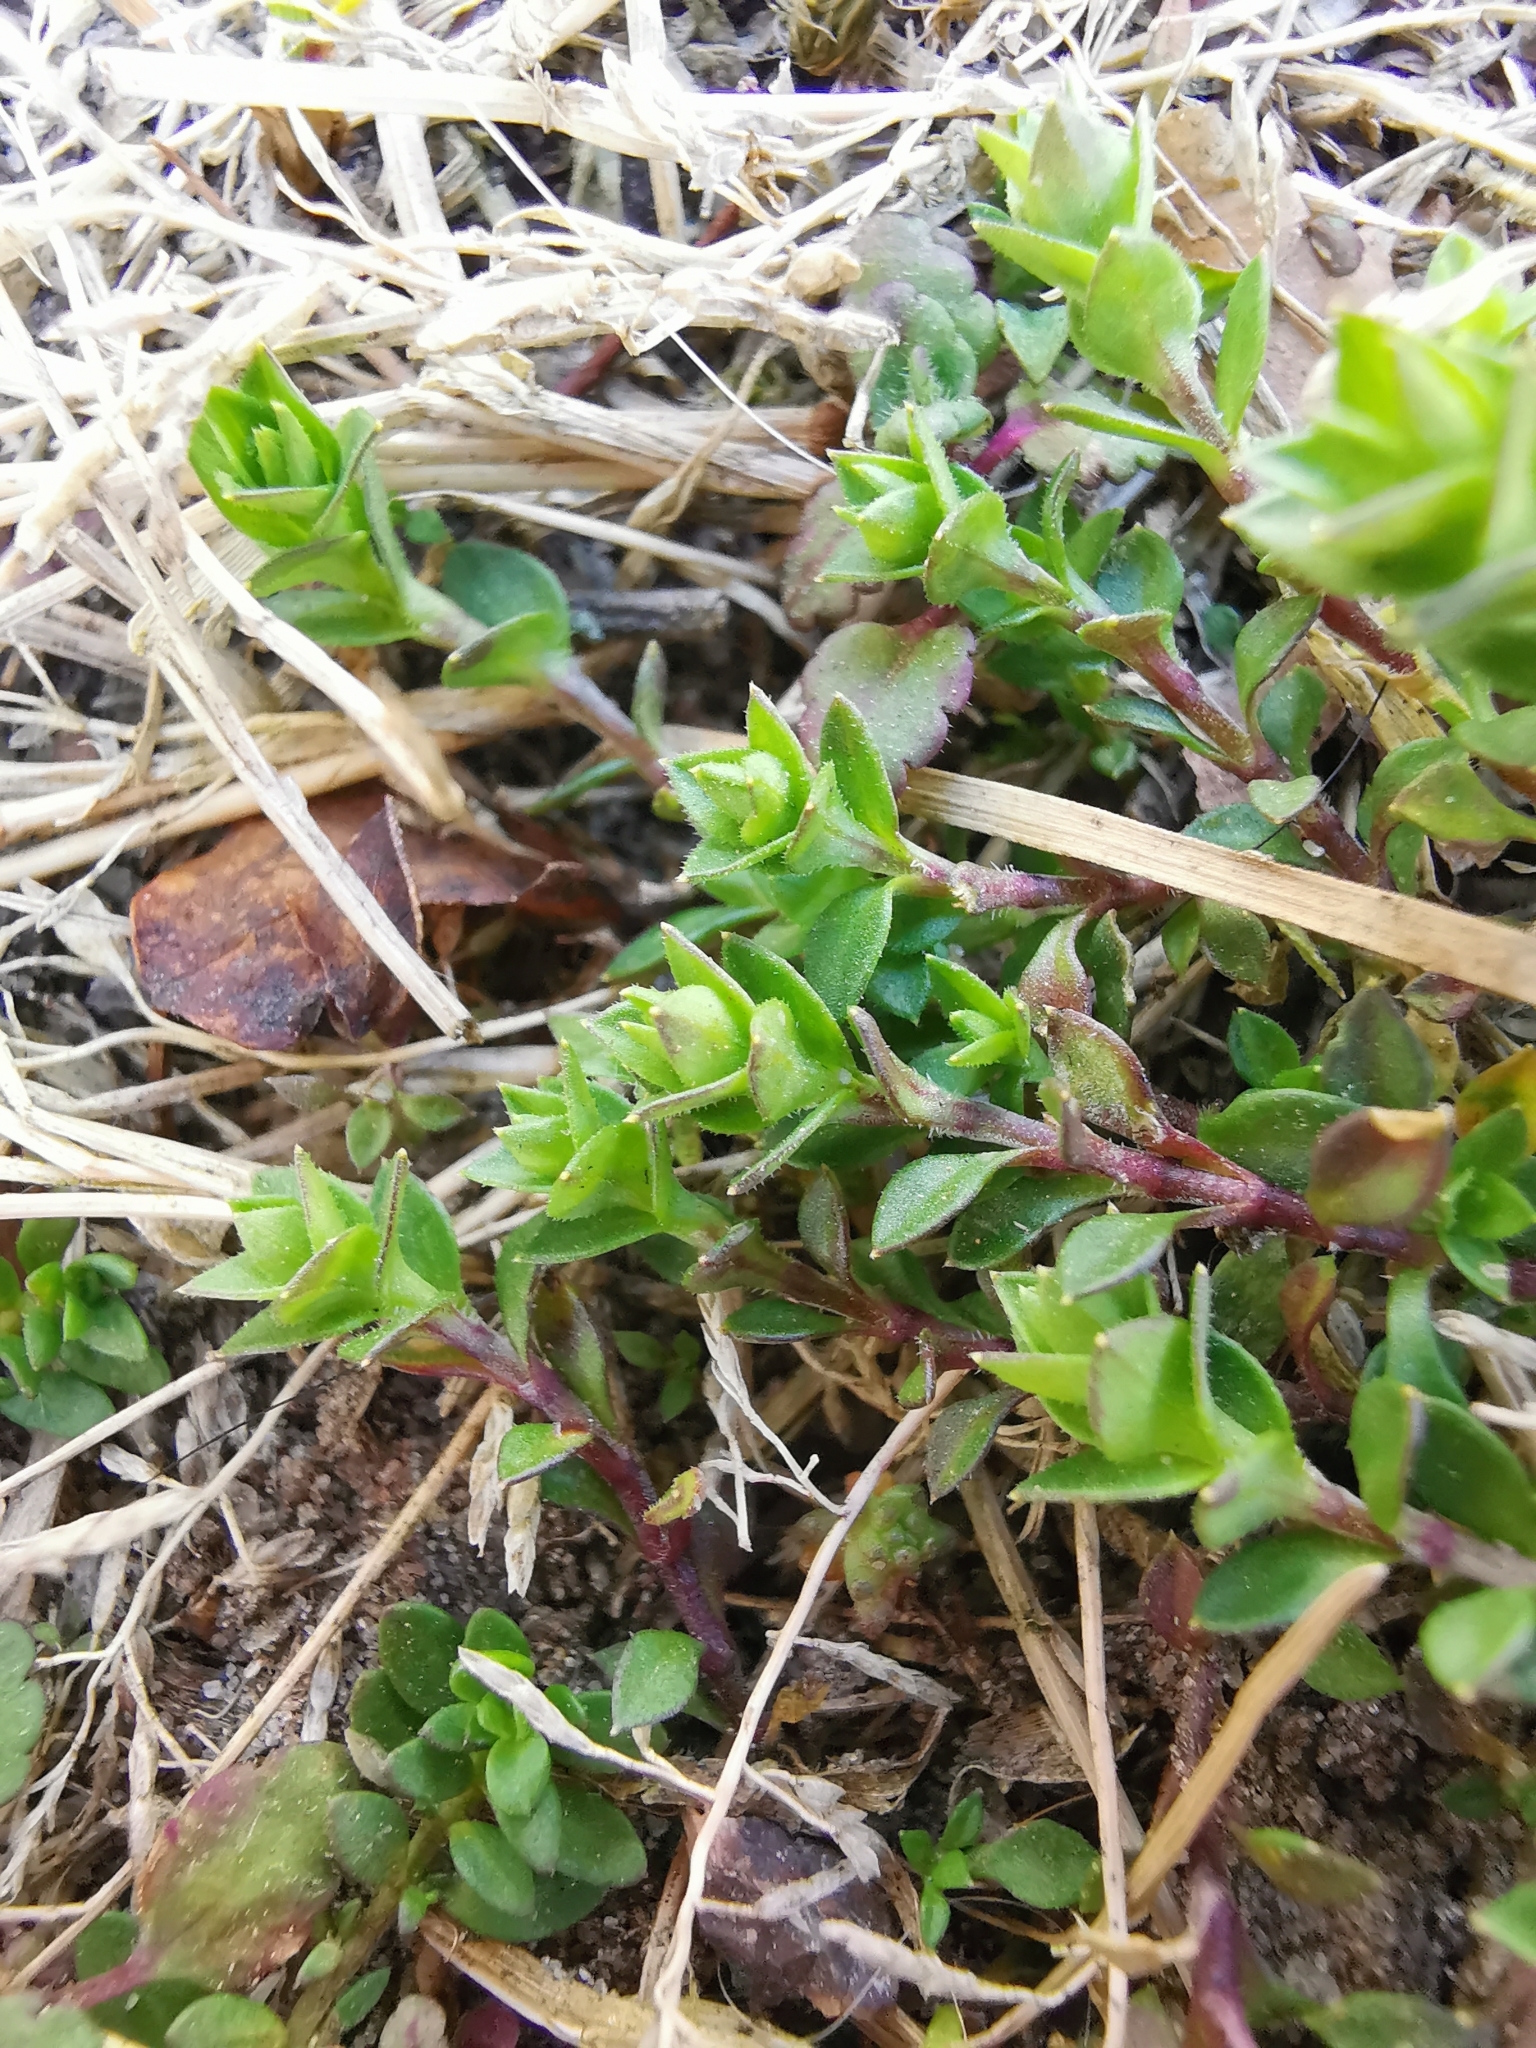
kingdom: Plantae
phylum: Tracheophyta
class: Magnoliopsida
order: Caryophyllales
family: Caryophyllaceae
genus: Arenaria
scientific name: Arenaria serpyllifolia
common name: Thyme-leaved sandwort
